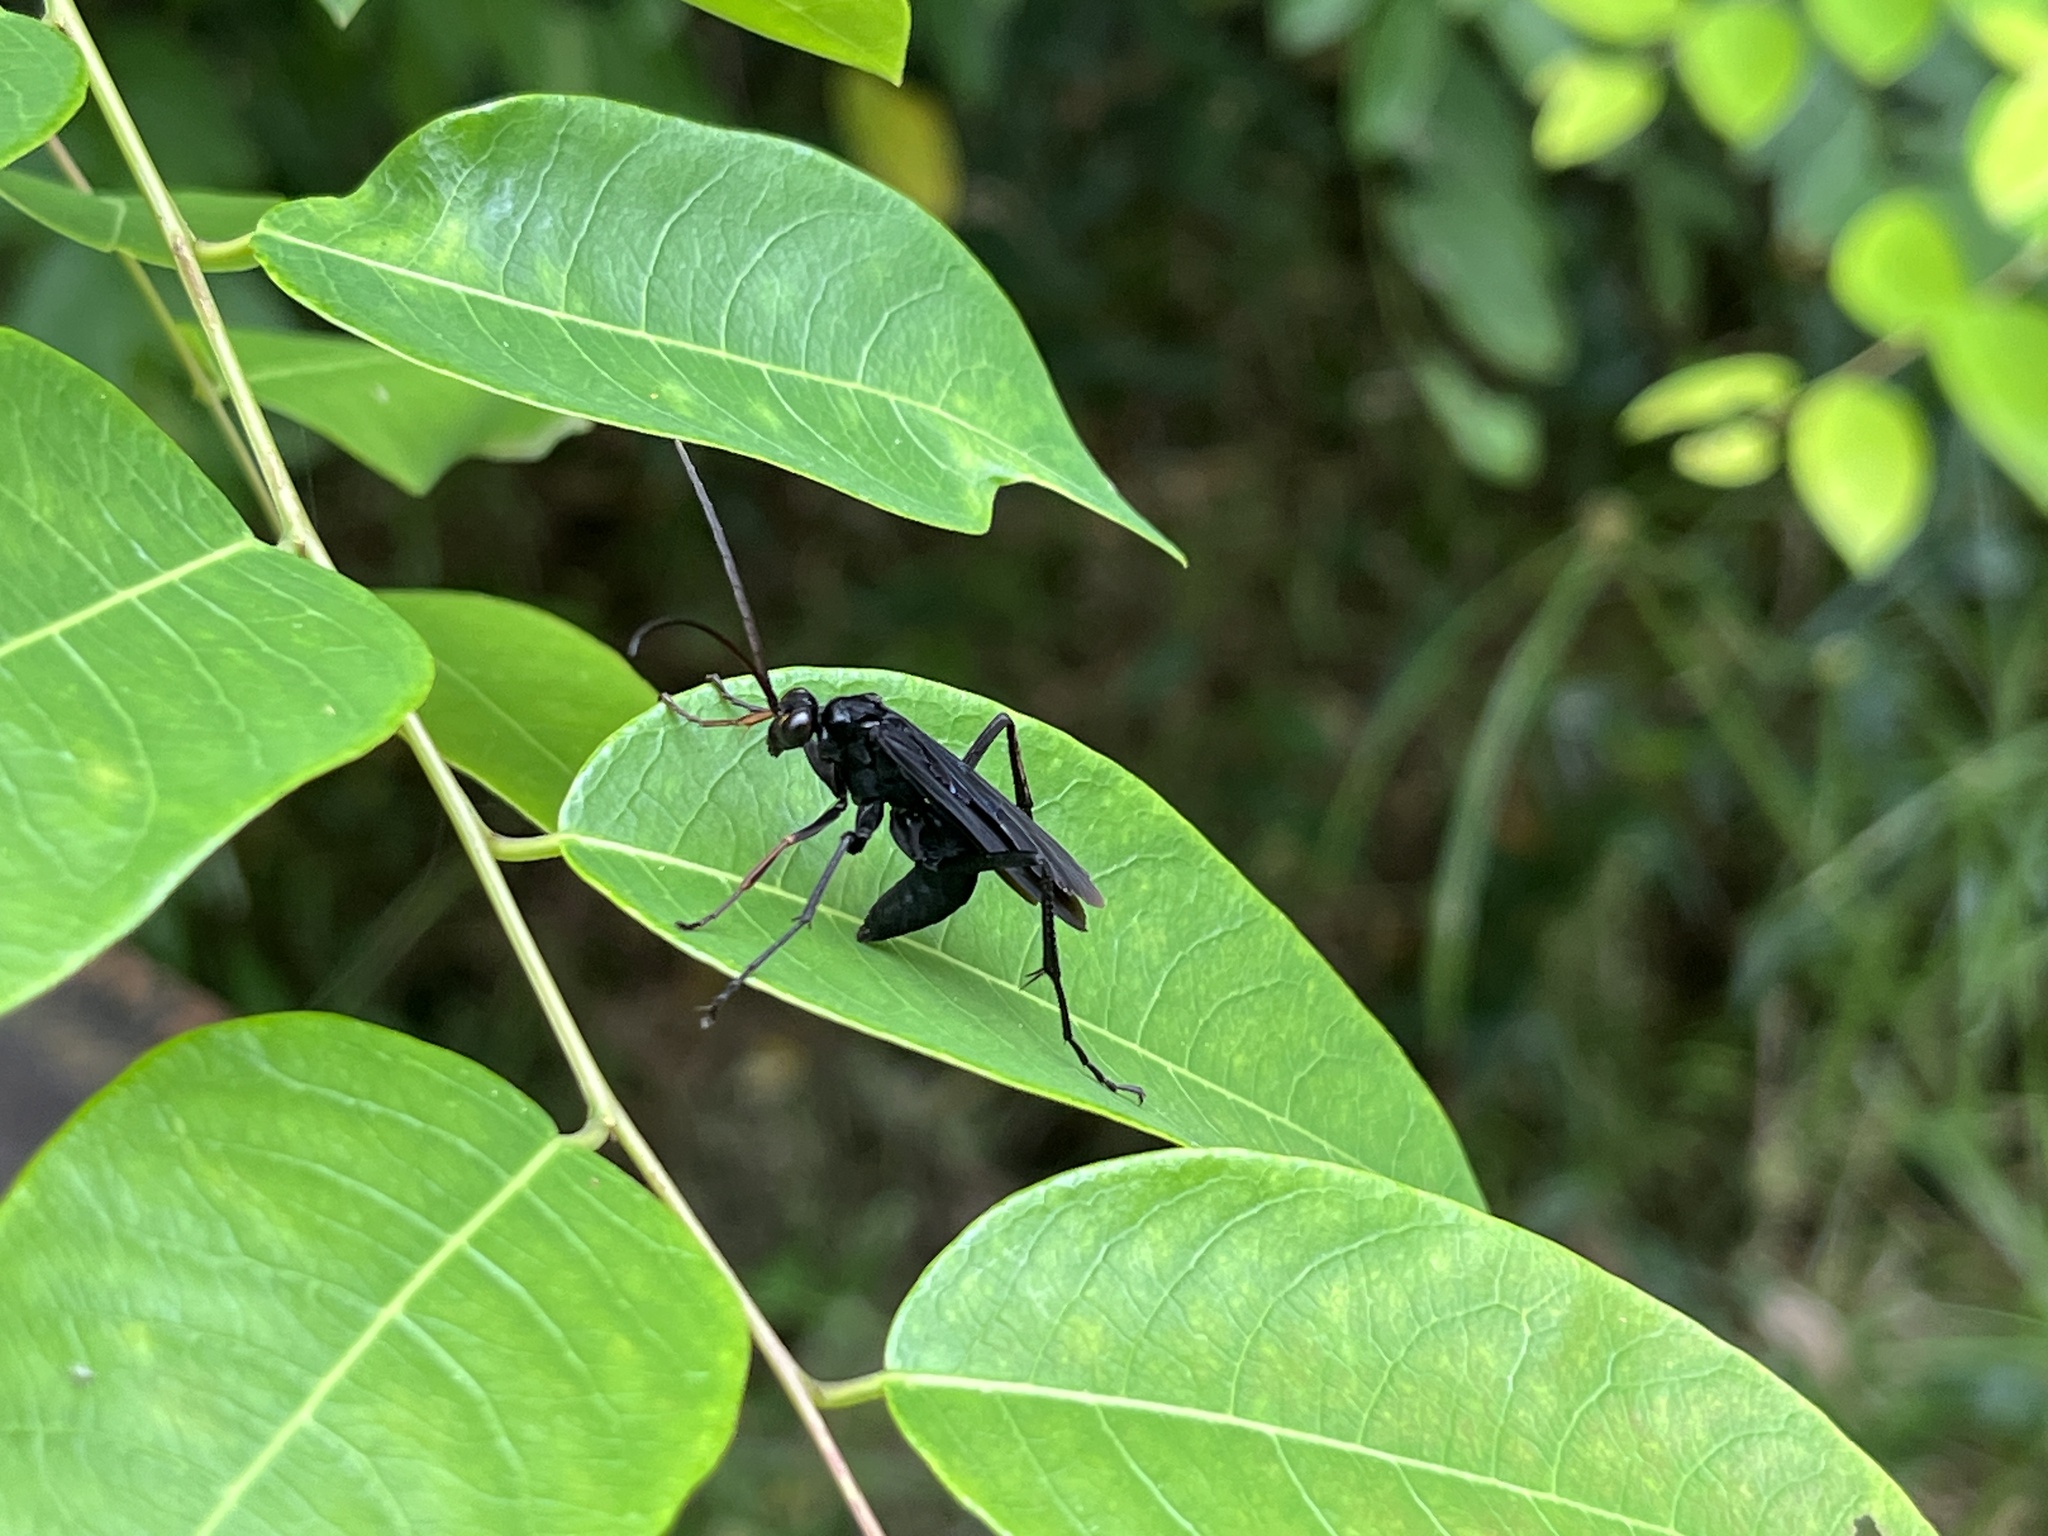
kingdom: Animalia
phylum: Arthropoda
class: Insecta
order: Hymenoptera
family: Pompilidae
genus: Cyphononyx
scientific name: Cyphononyx bipartitus
